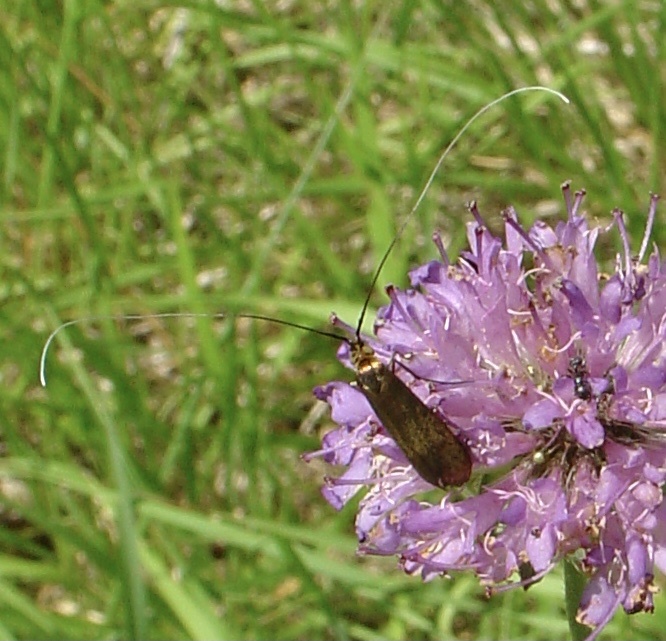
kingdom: Animalia
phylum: Arthropoda
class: Insecta
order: Lepidoptera
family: Adelidae
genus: Nemophora
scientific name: Nemophora metallica
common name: Brassy long-horn
